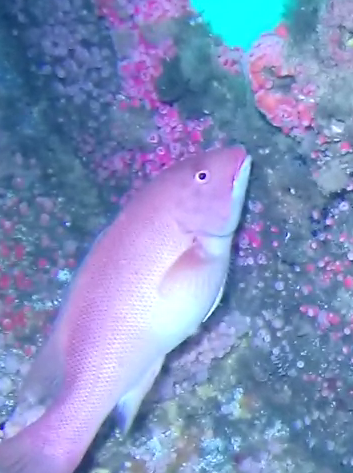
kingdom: Animalia
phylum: Chordata
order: Perciformes
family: Labridae
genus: Semicossyphus
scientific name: Semicossyphus pulcher
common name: California sheephead
